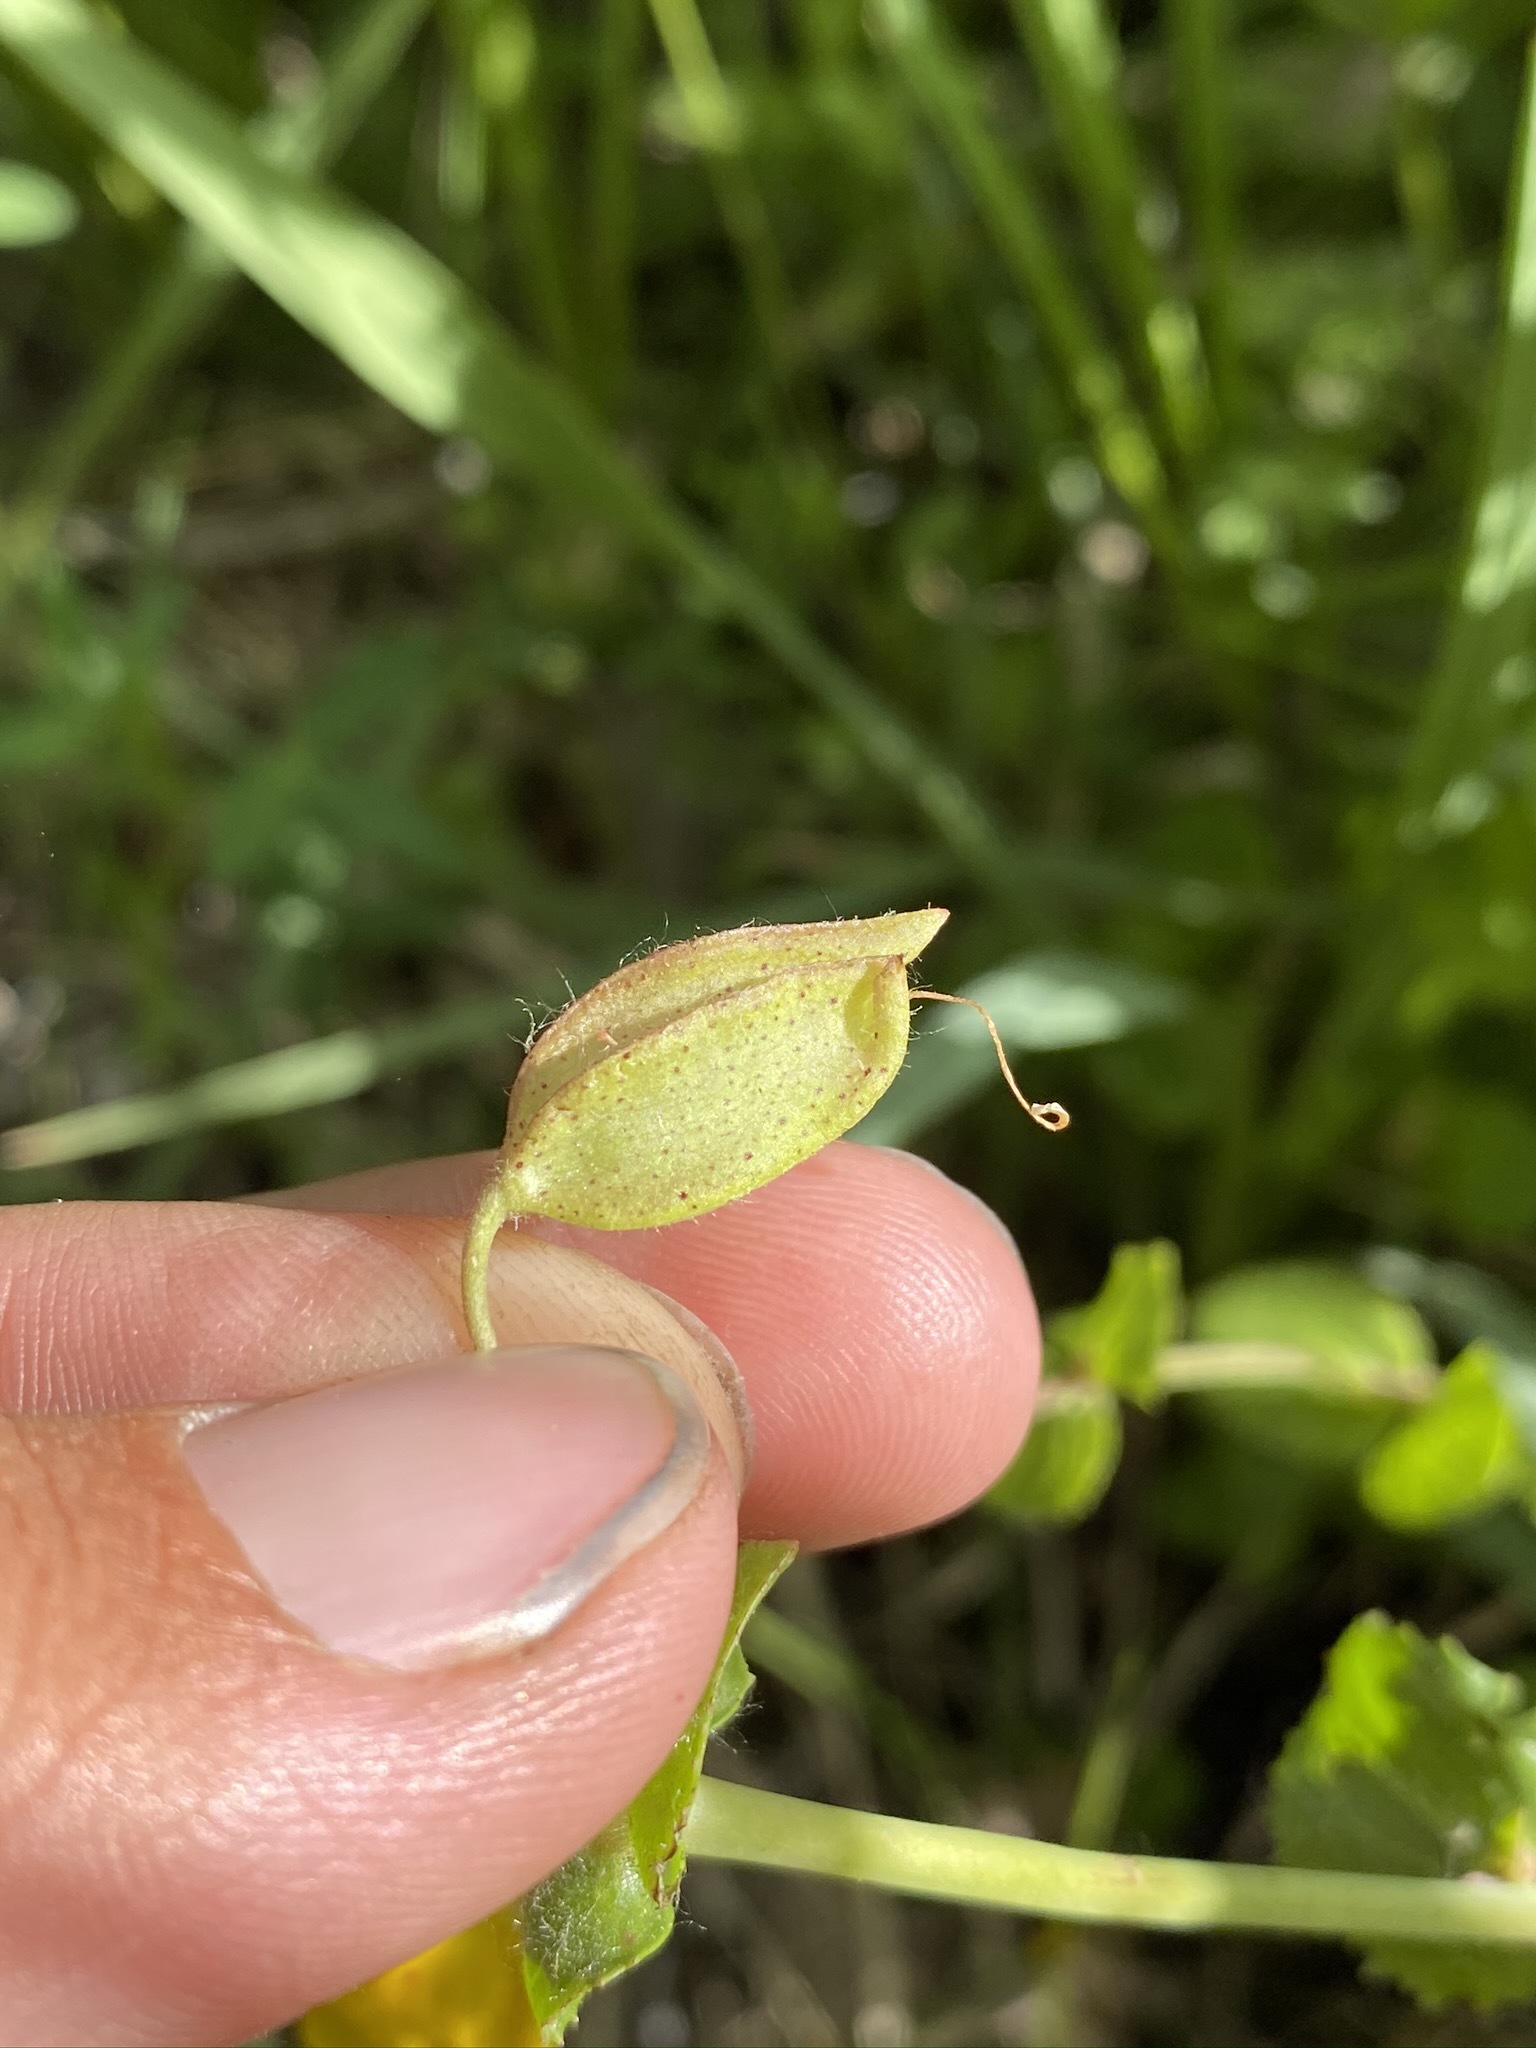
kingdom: Plantae
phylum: Tracheophyta
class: Magnoliopsida
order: Lamiales
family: Phrymaceae
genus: Erythranthe
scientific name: Erythranthe guttata
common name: Monkeyflower
